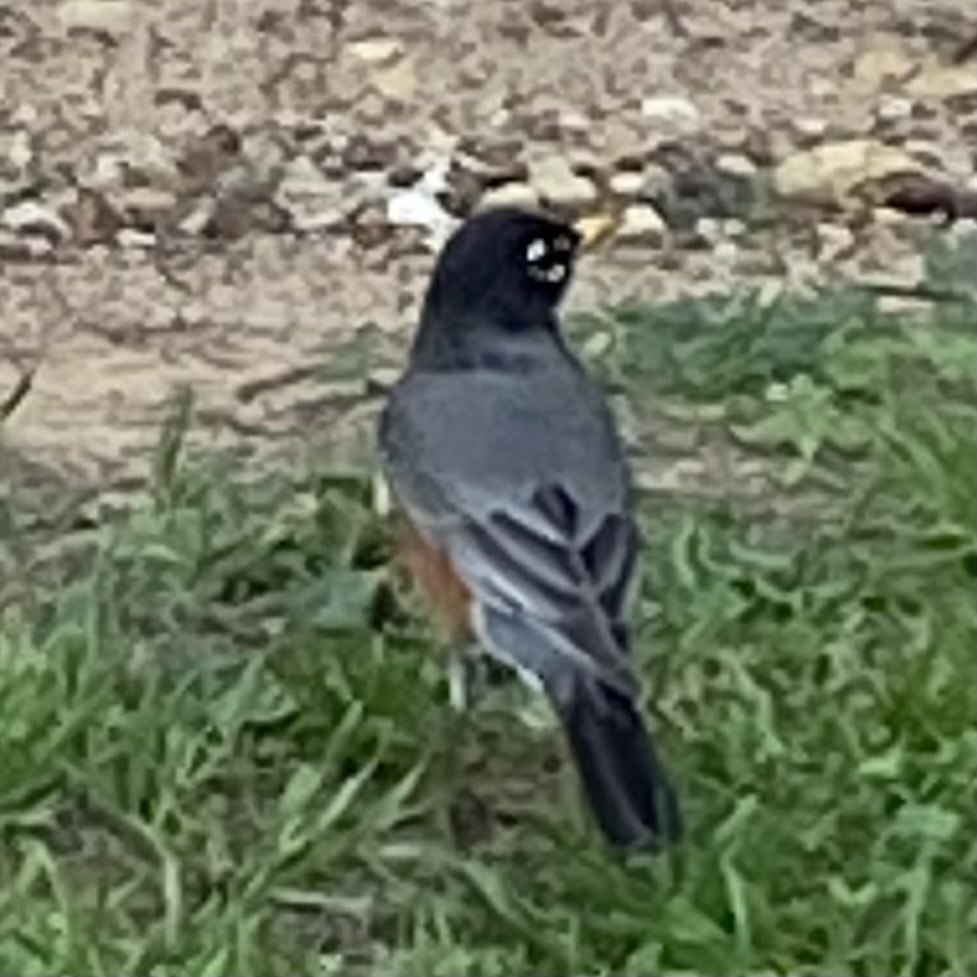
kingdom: Animalia
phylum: Chordata
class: Aves
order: Passeriformes
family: Turdidae
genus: Turdus
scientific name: Turdus migratorius
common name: American robin
